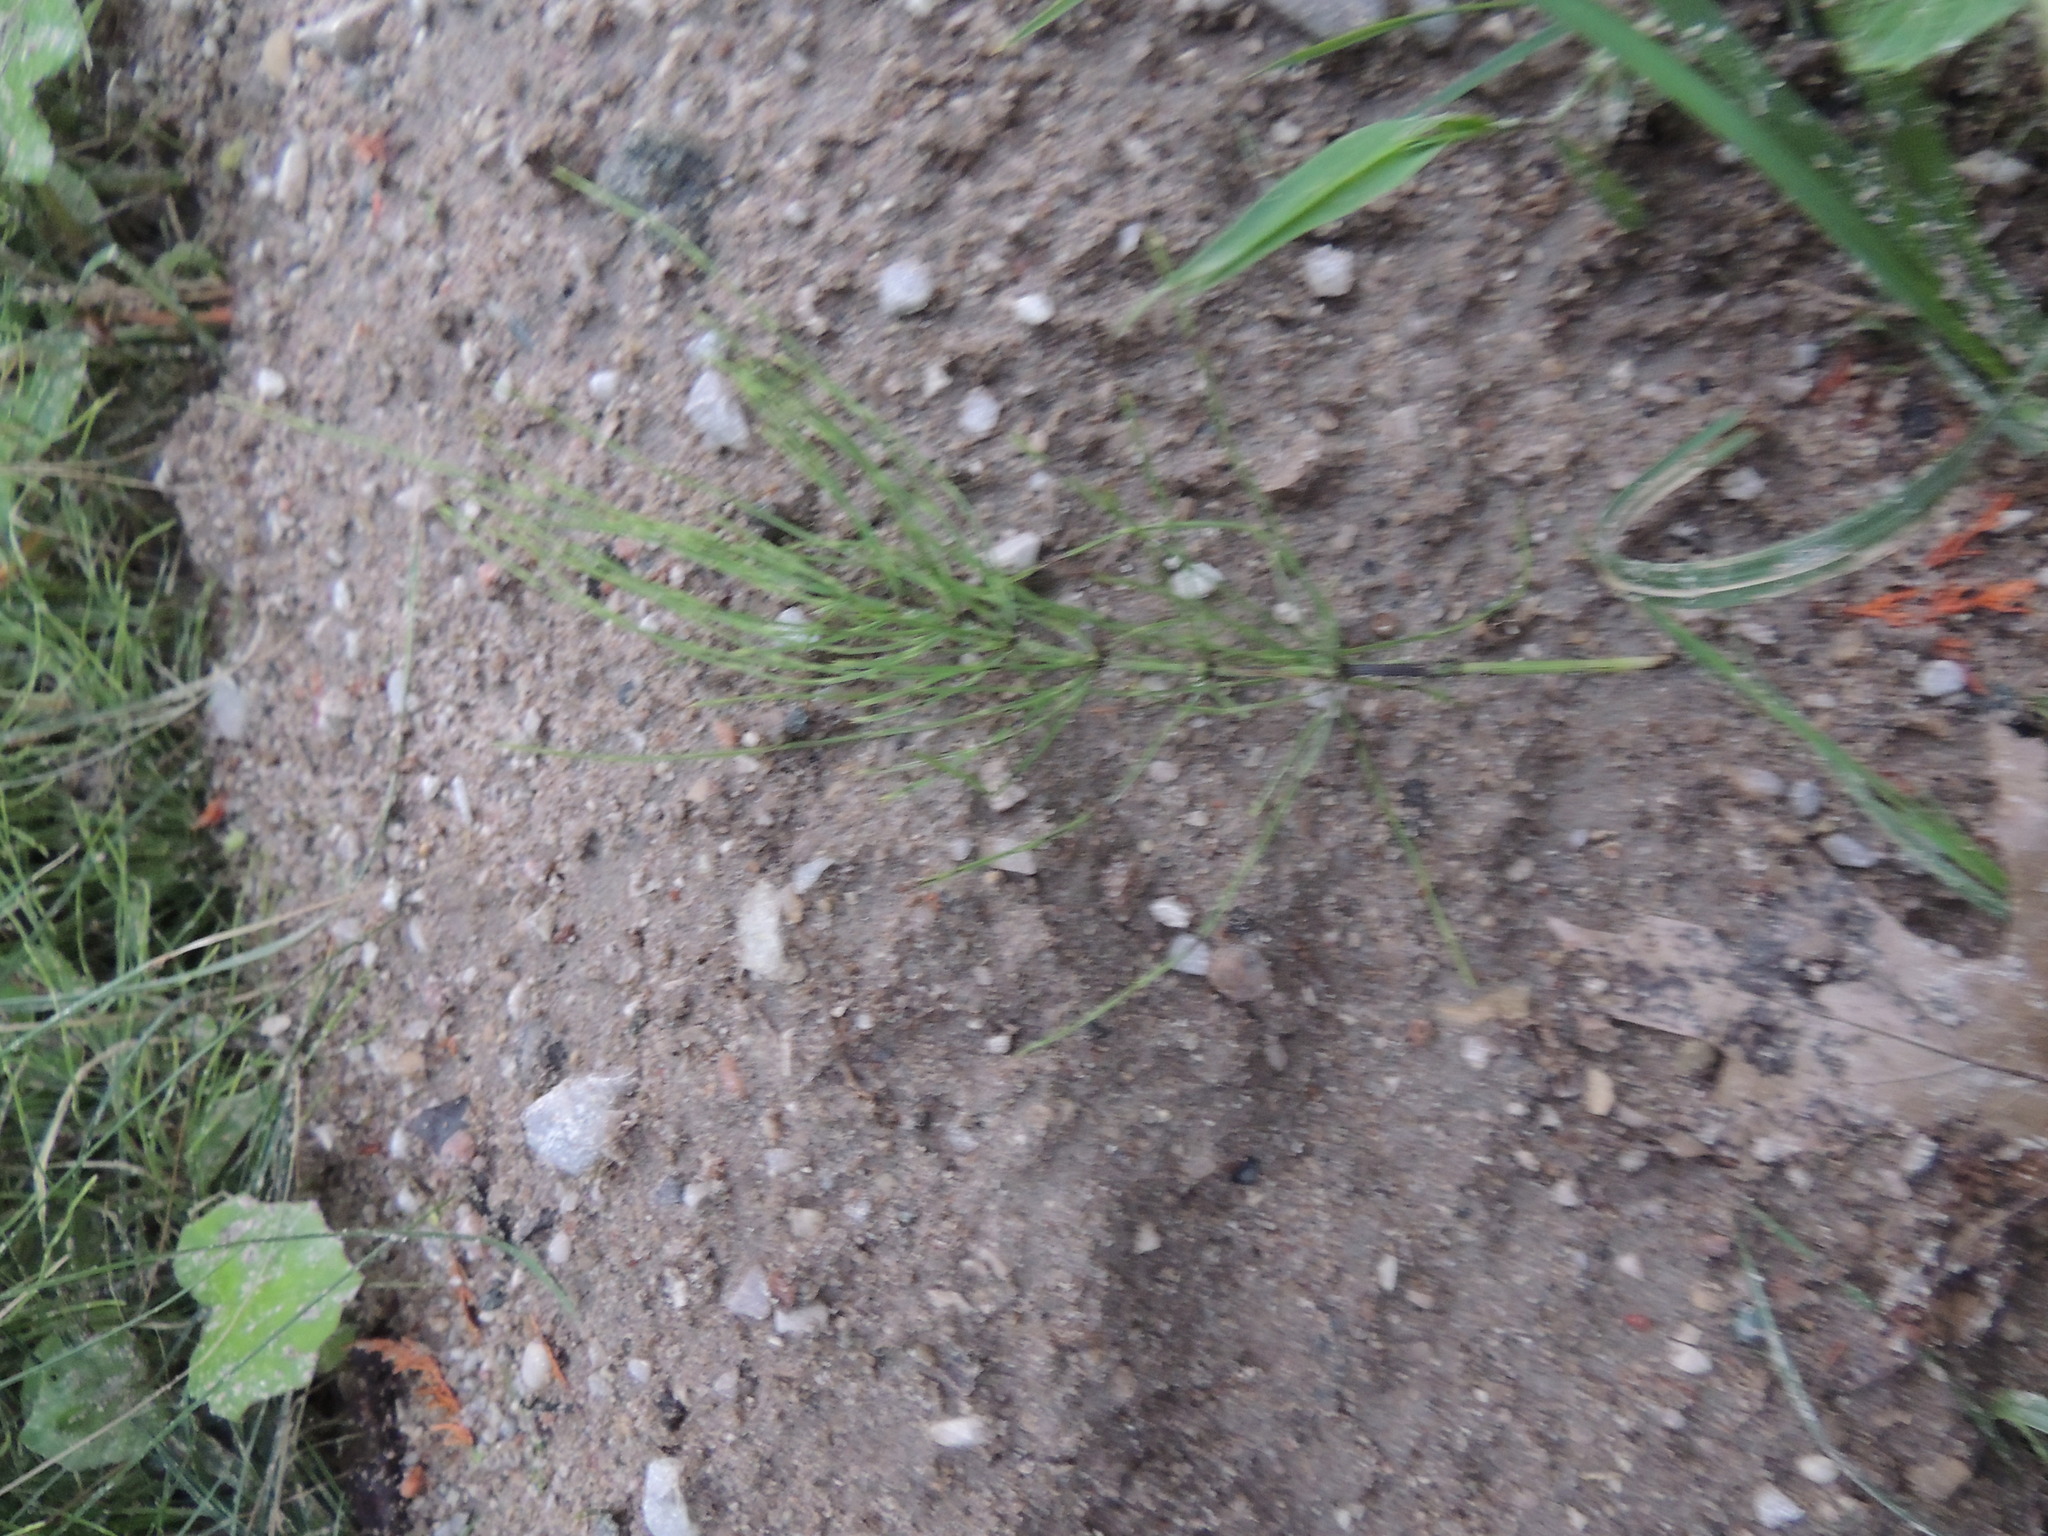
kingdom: Plantae
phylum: Tracheophyta
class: Polypodiopsida
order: Equisetales
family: Equisetaceae
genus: Equisetum
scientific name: Equisetum arvense
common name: Field horsetail
